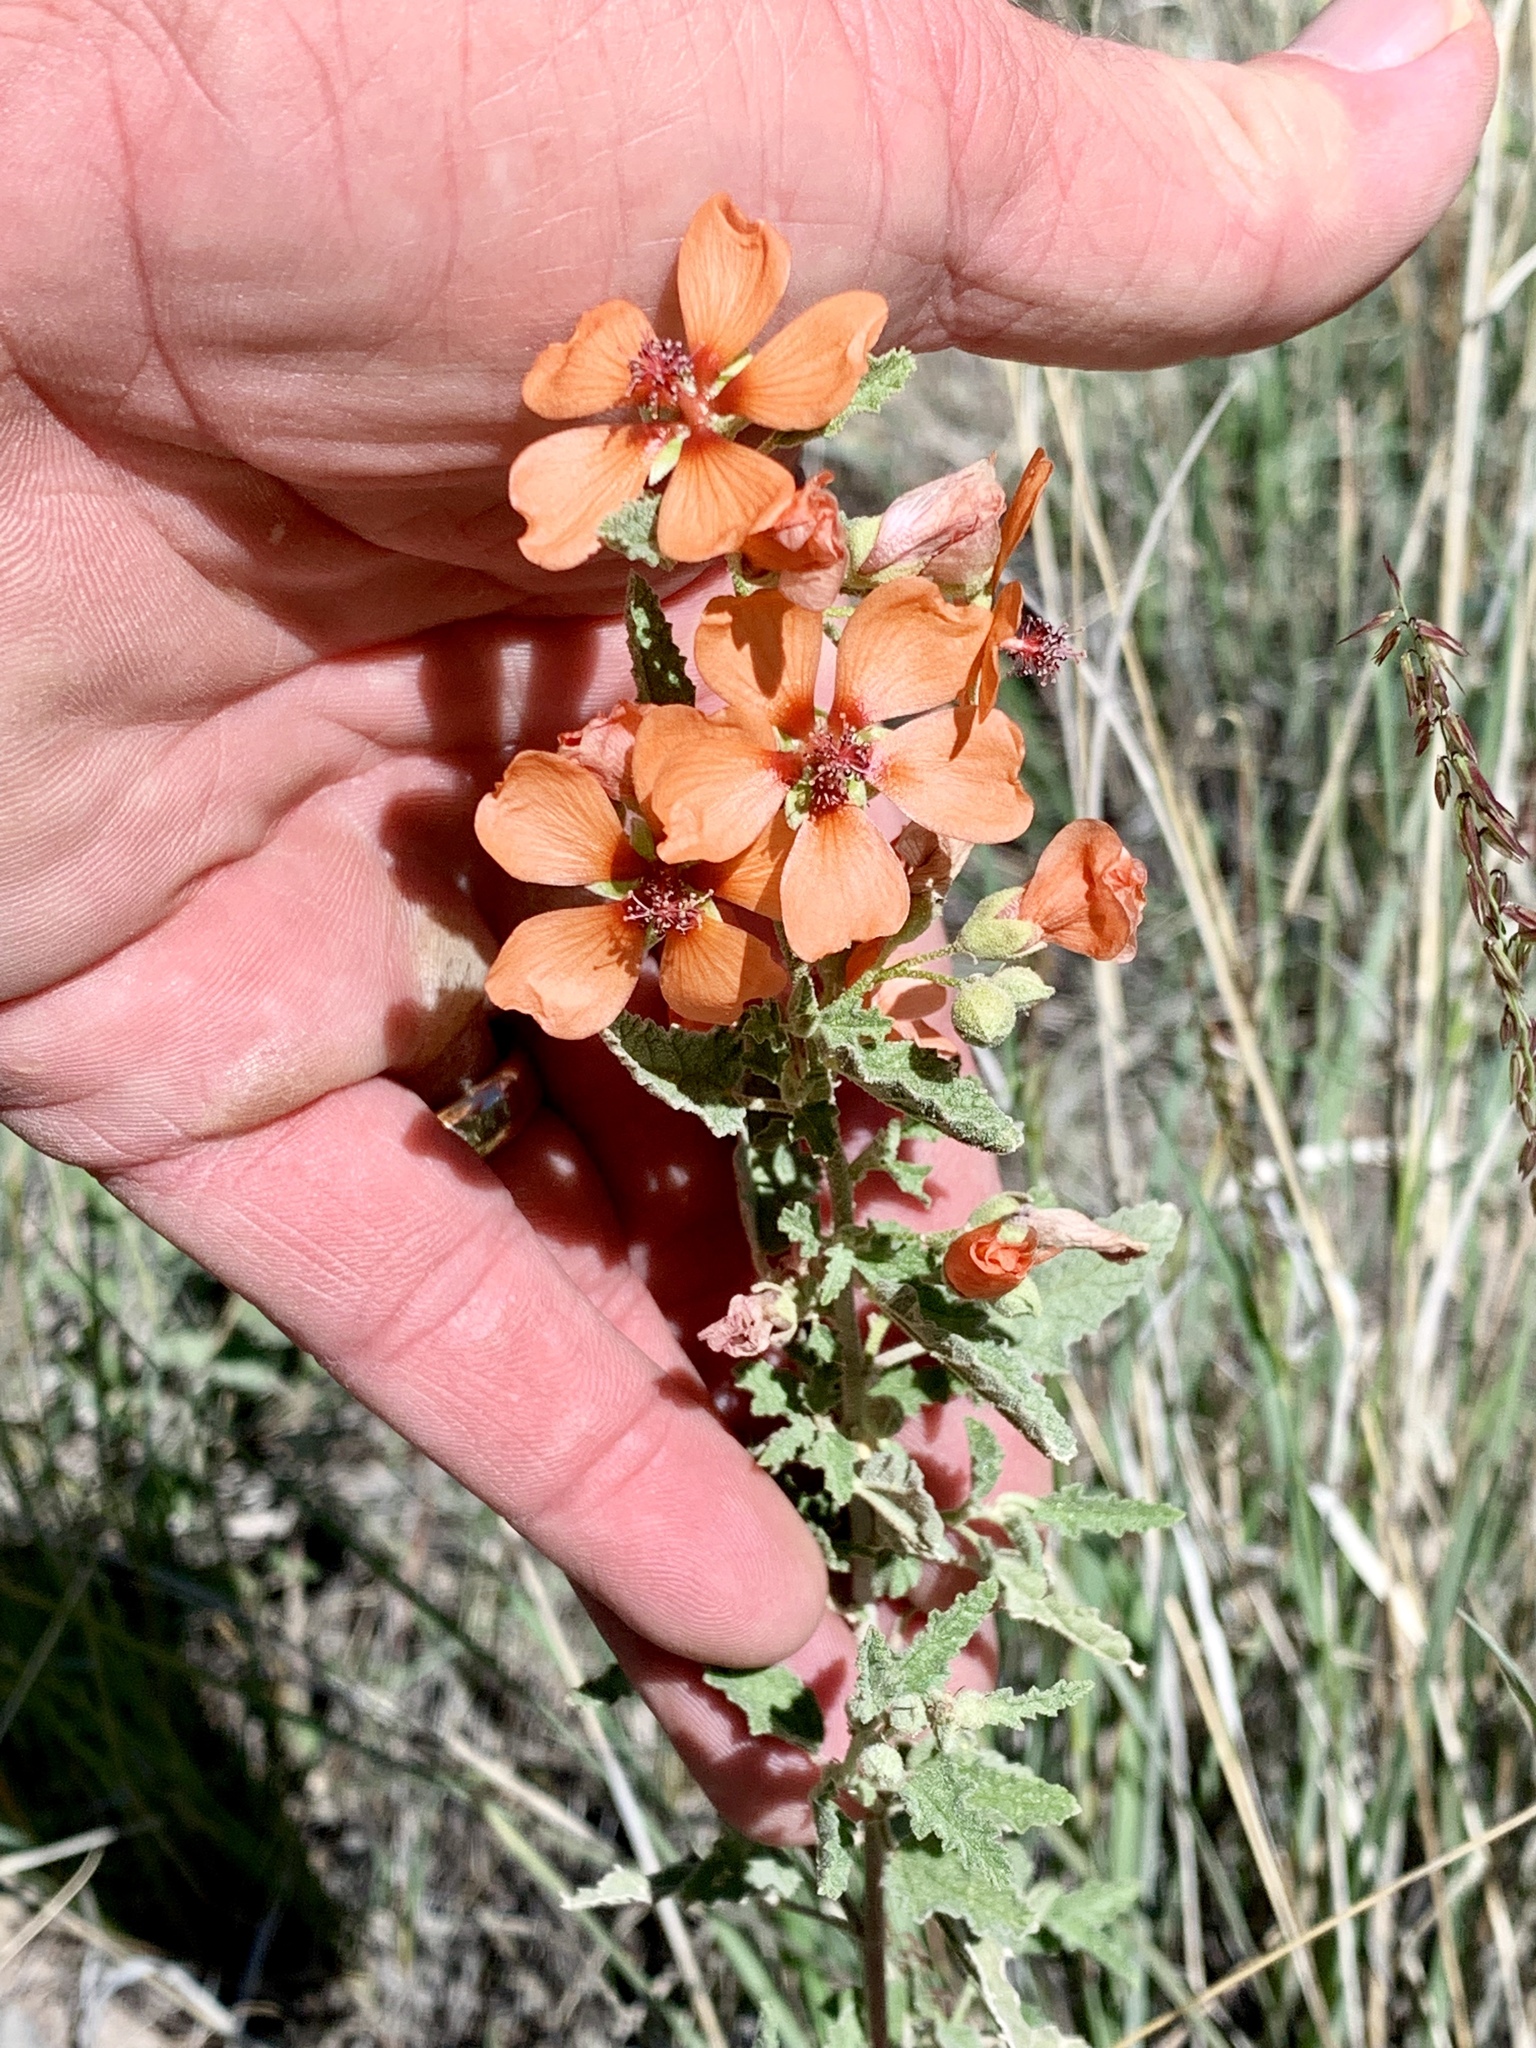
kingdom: Plantae
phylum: Tracheophyta
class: Magnoliopsida
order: Malvales
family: Malvaceae
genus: Sphaeralcea
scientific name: Sphaeralcea angustifolia
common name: Copper globe-mallow
